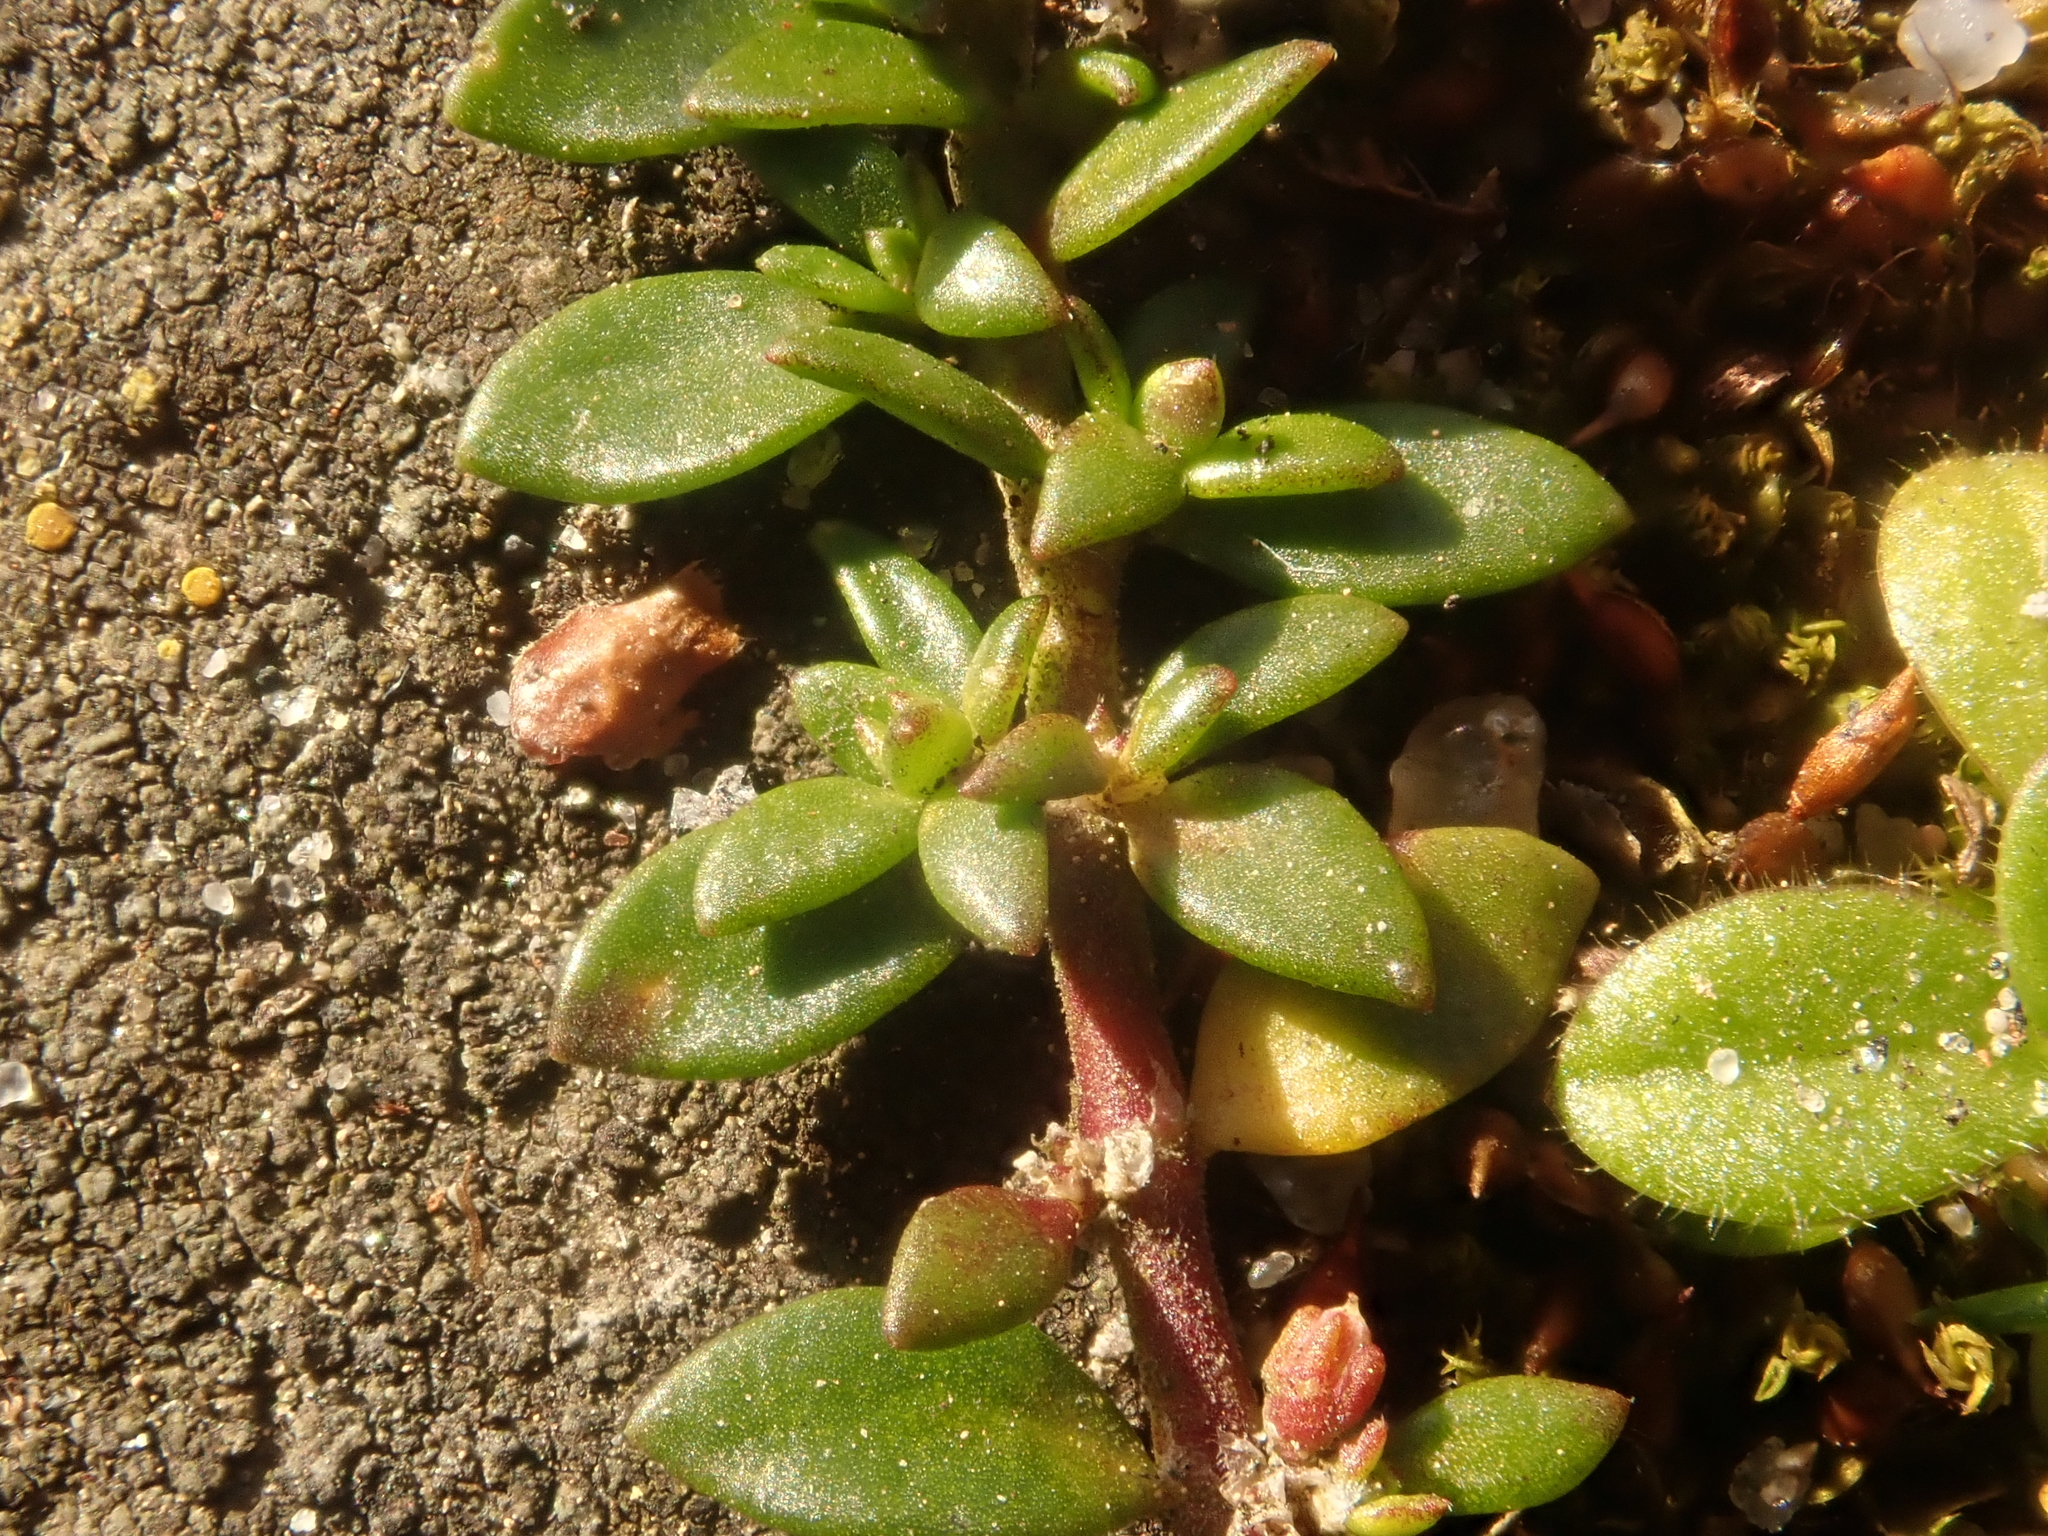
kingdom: Plantae
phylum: Tracheophyta
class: Magnoliopsida
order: Caryophyllales
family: Caryophyllaceae
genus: Herniaria
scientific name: Herniaria glabra
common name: Smooth rupturewort
